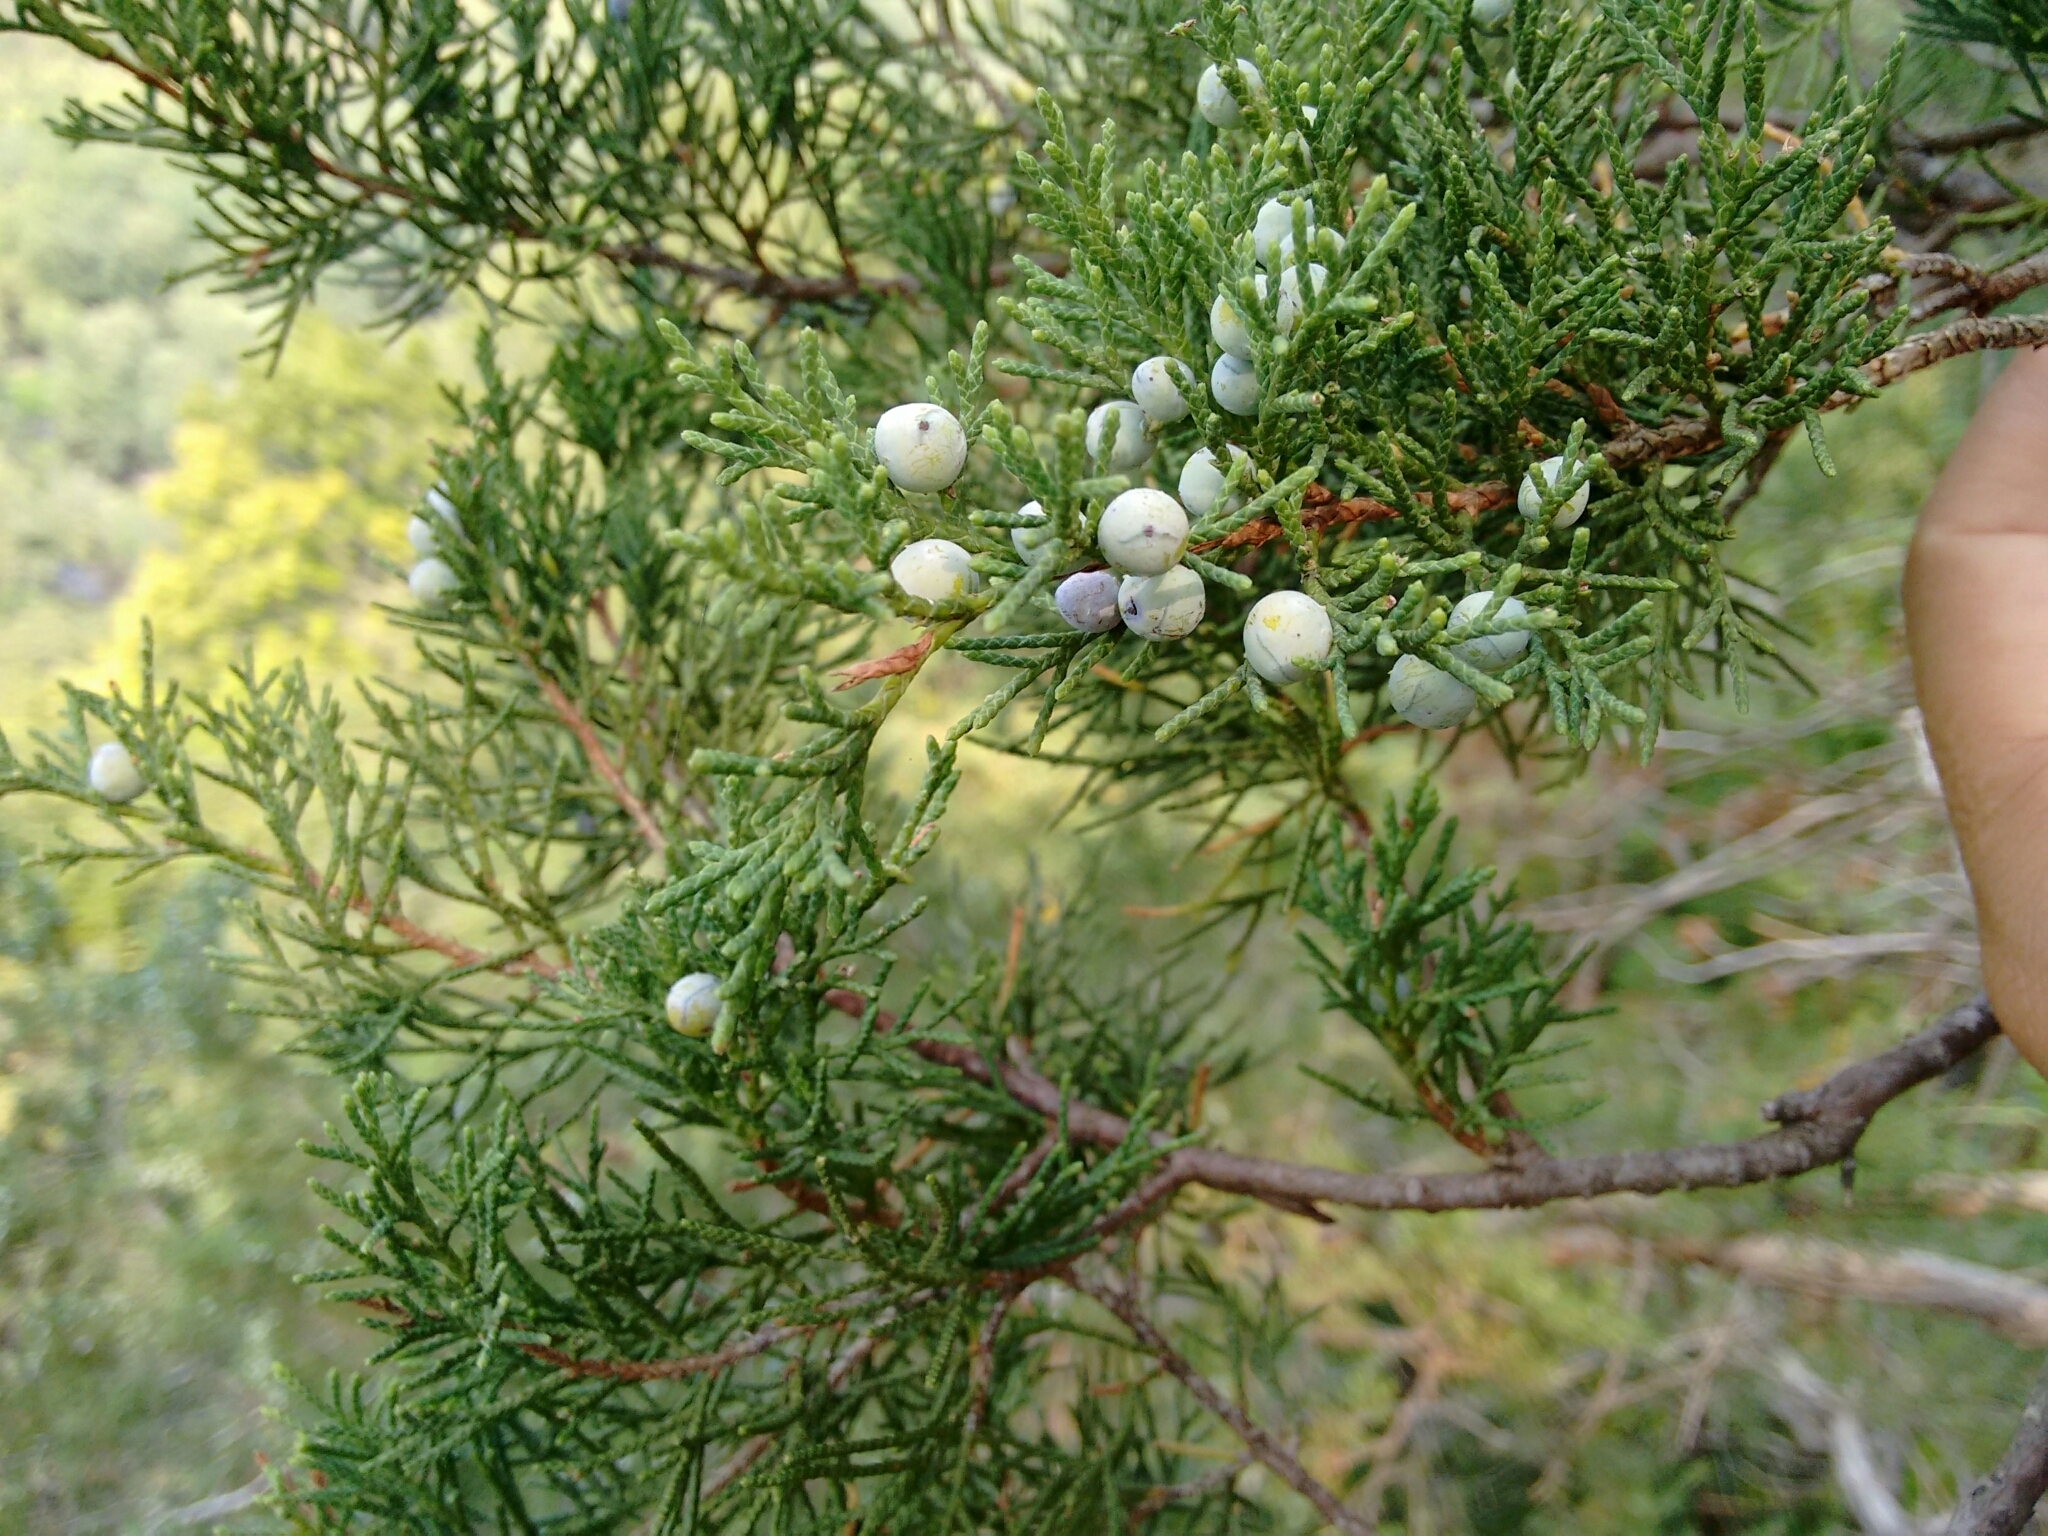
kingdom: Plantae
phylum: Tracheophyta
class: Pinopsida
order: Pinales
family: Cupressaceae
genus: Juniperus
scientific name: Juniperus virginiana
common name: Red juniper
